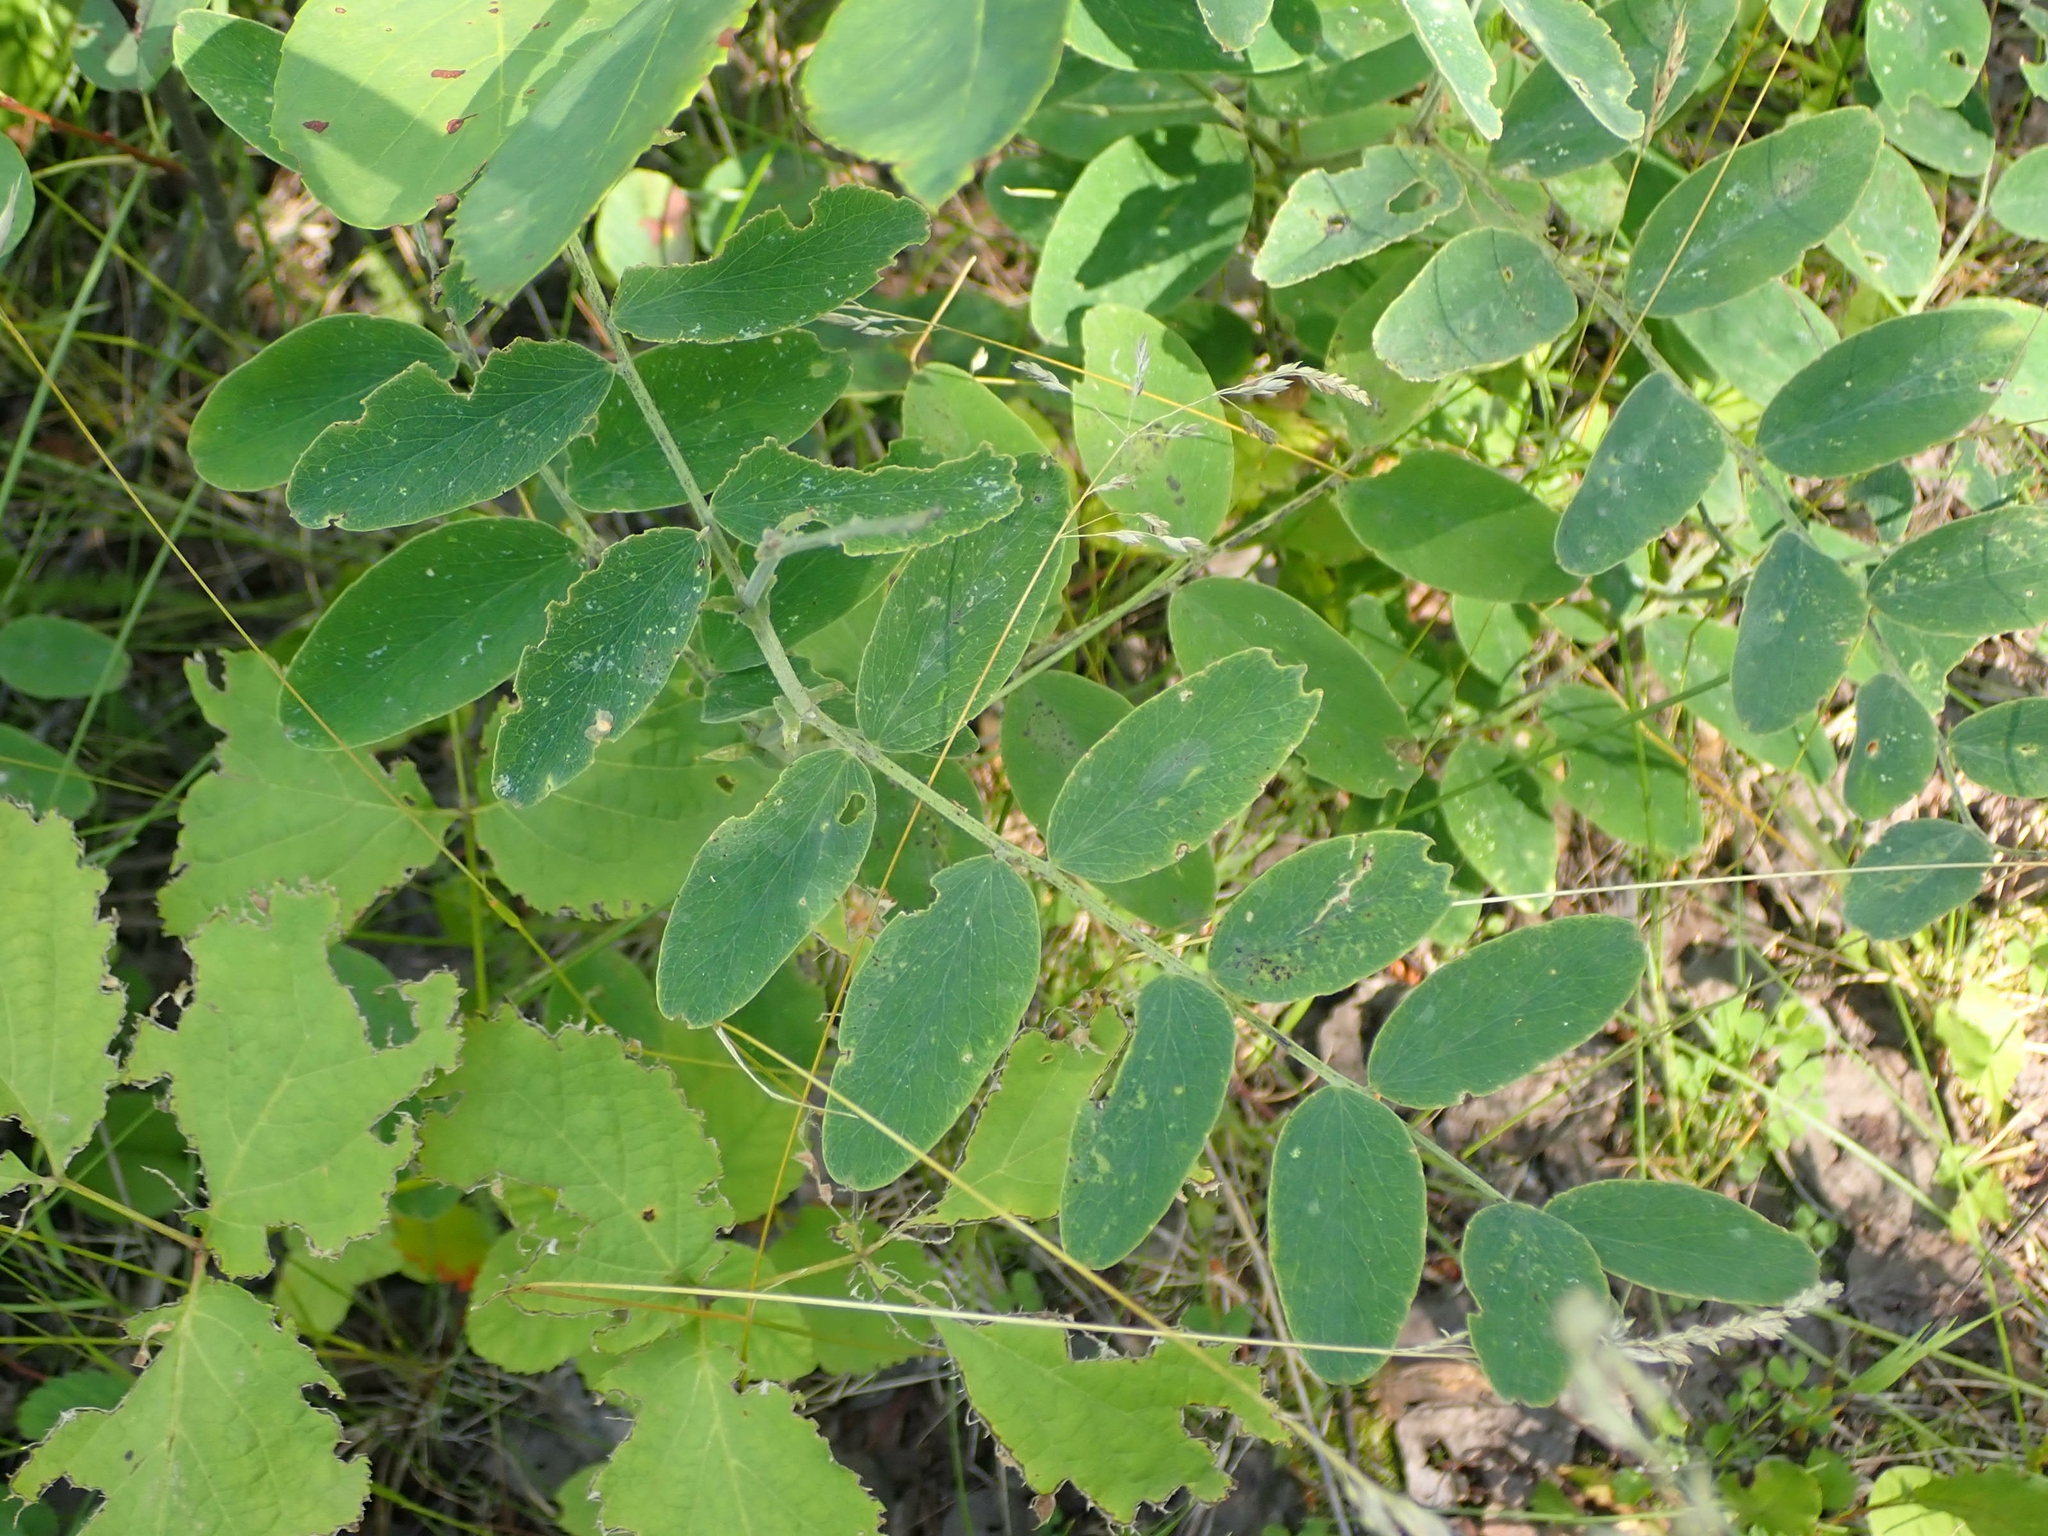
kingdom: Plantae
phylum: Tracheophyta
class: Magnoliopsida
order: Fabales
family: Fabaceae
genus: Lathyrus
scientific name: Lathyrus venosus
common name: Forest-pea
